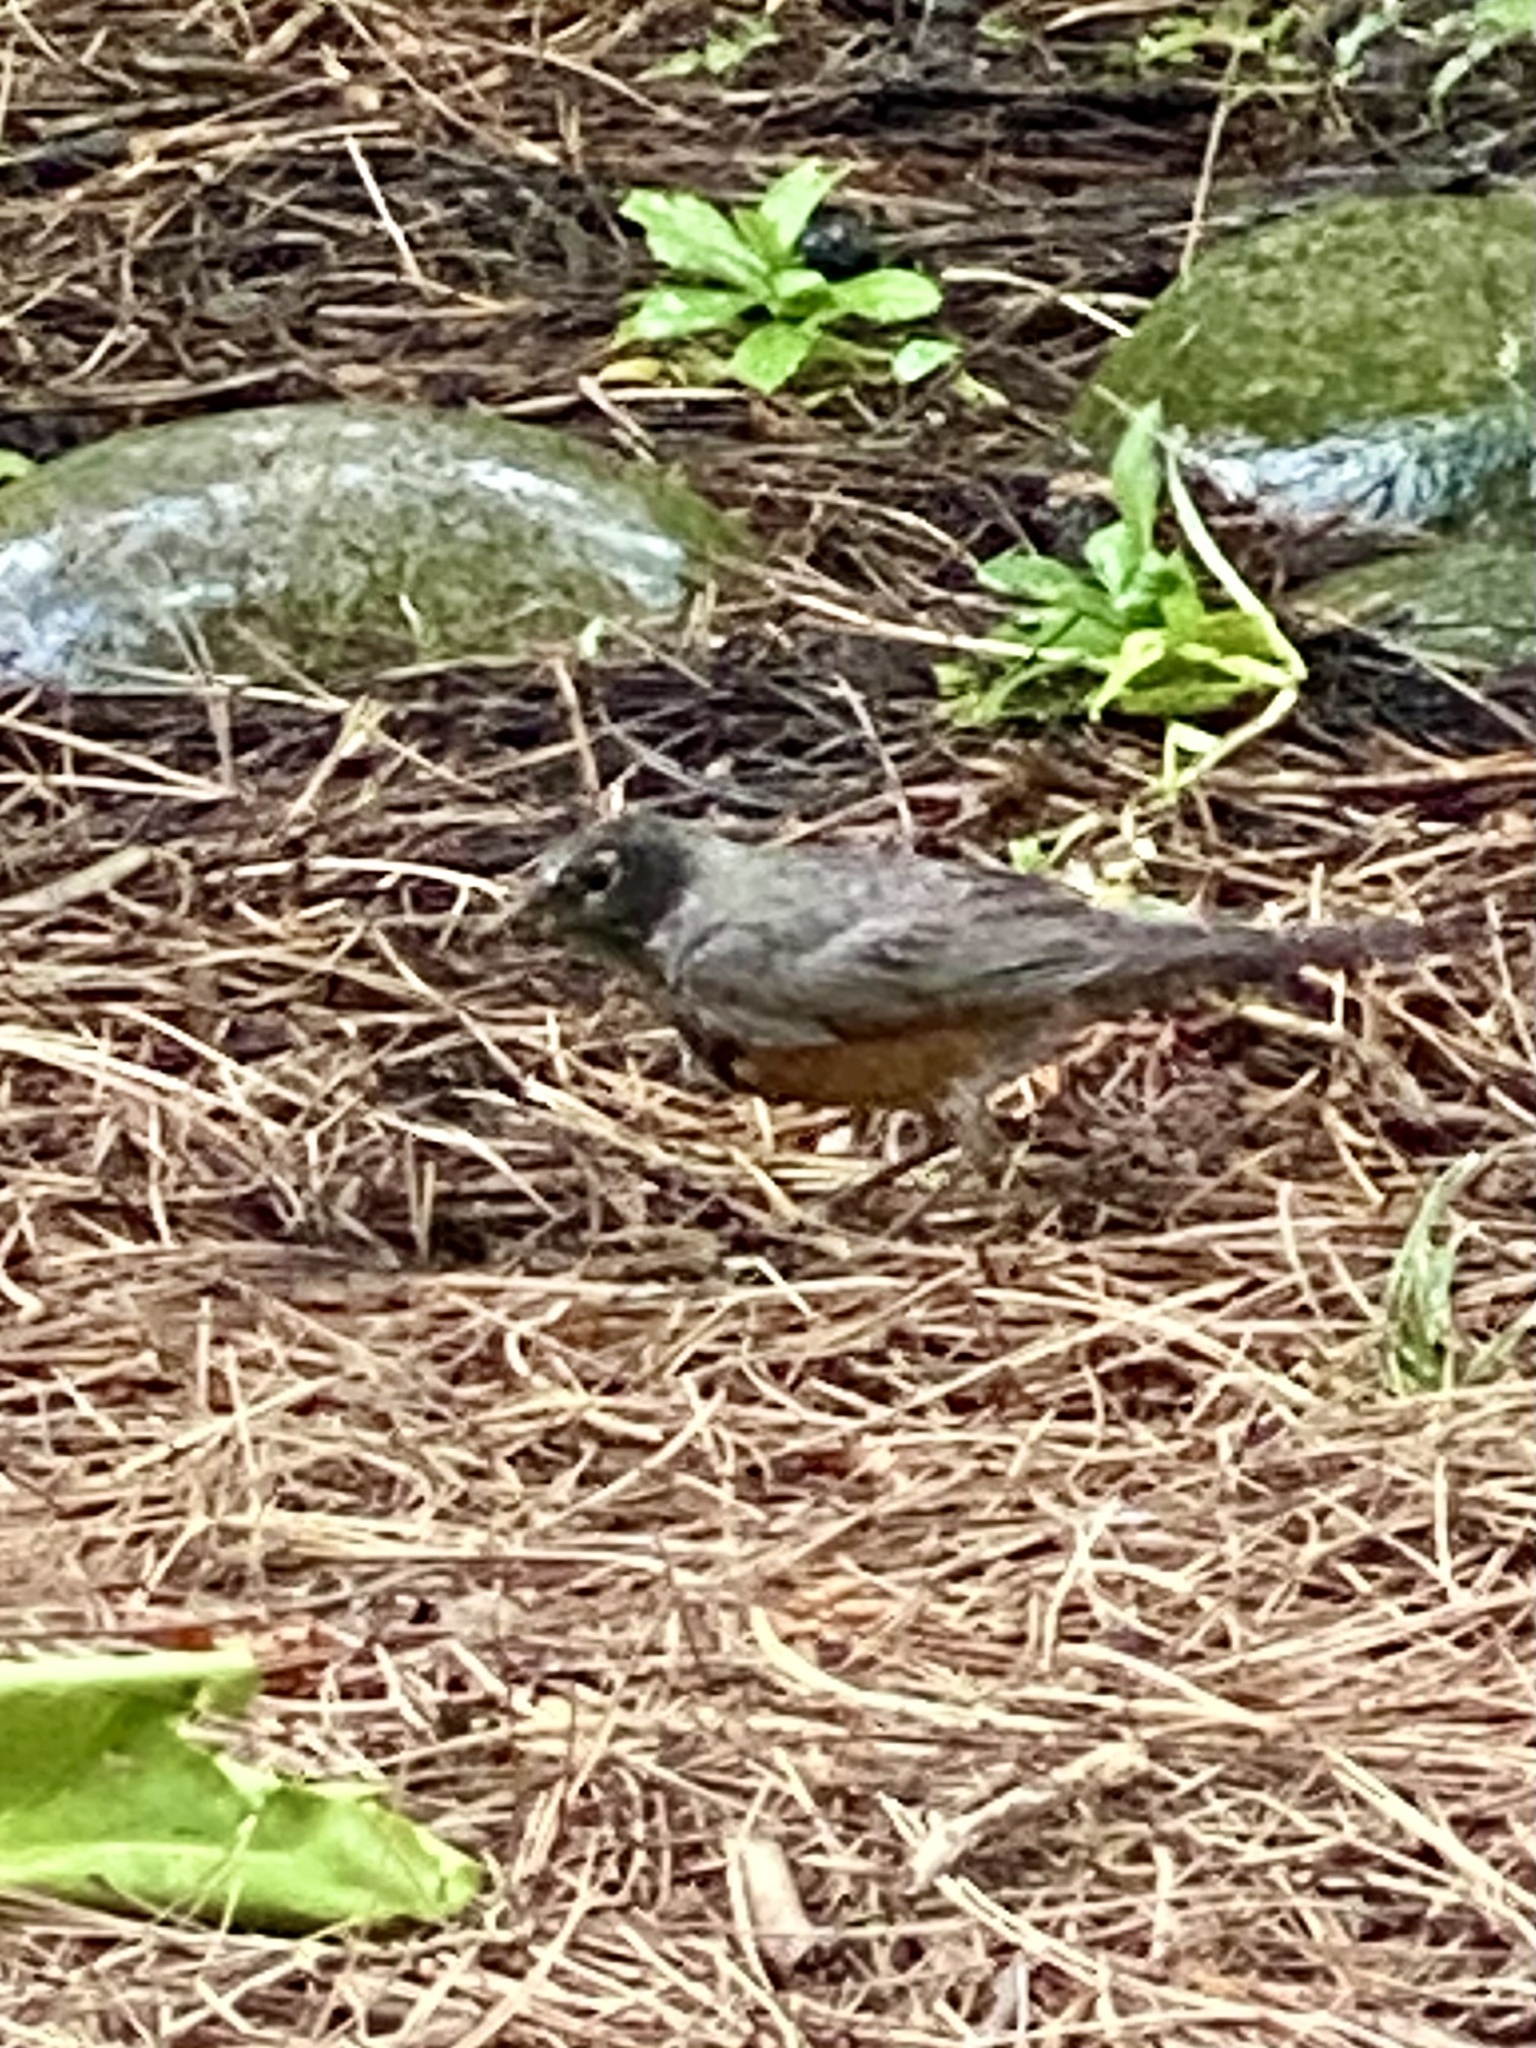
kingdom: Animalia
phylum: Chordata
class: Aves
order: Passeriformes
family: Turdidae
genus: Turdus
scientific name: Turdus migratorius
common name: American robin
